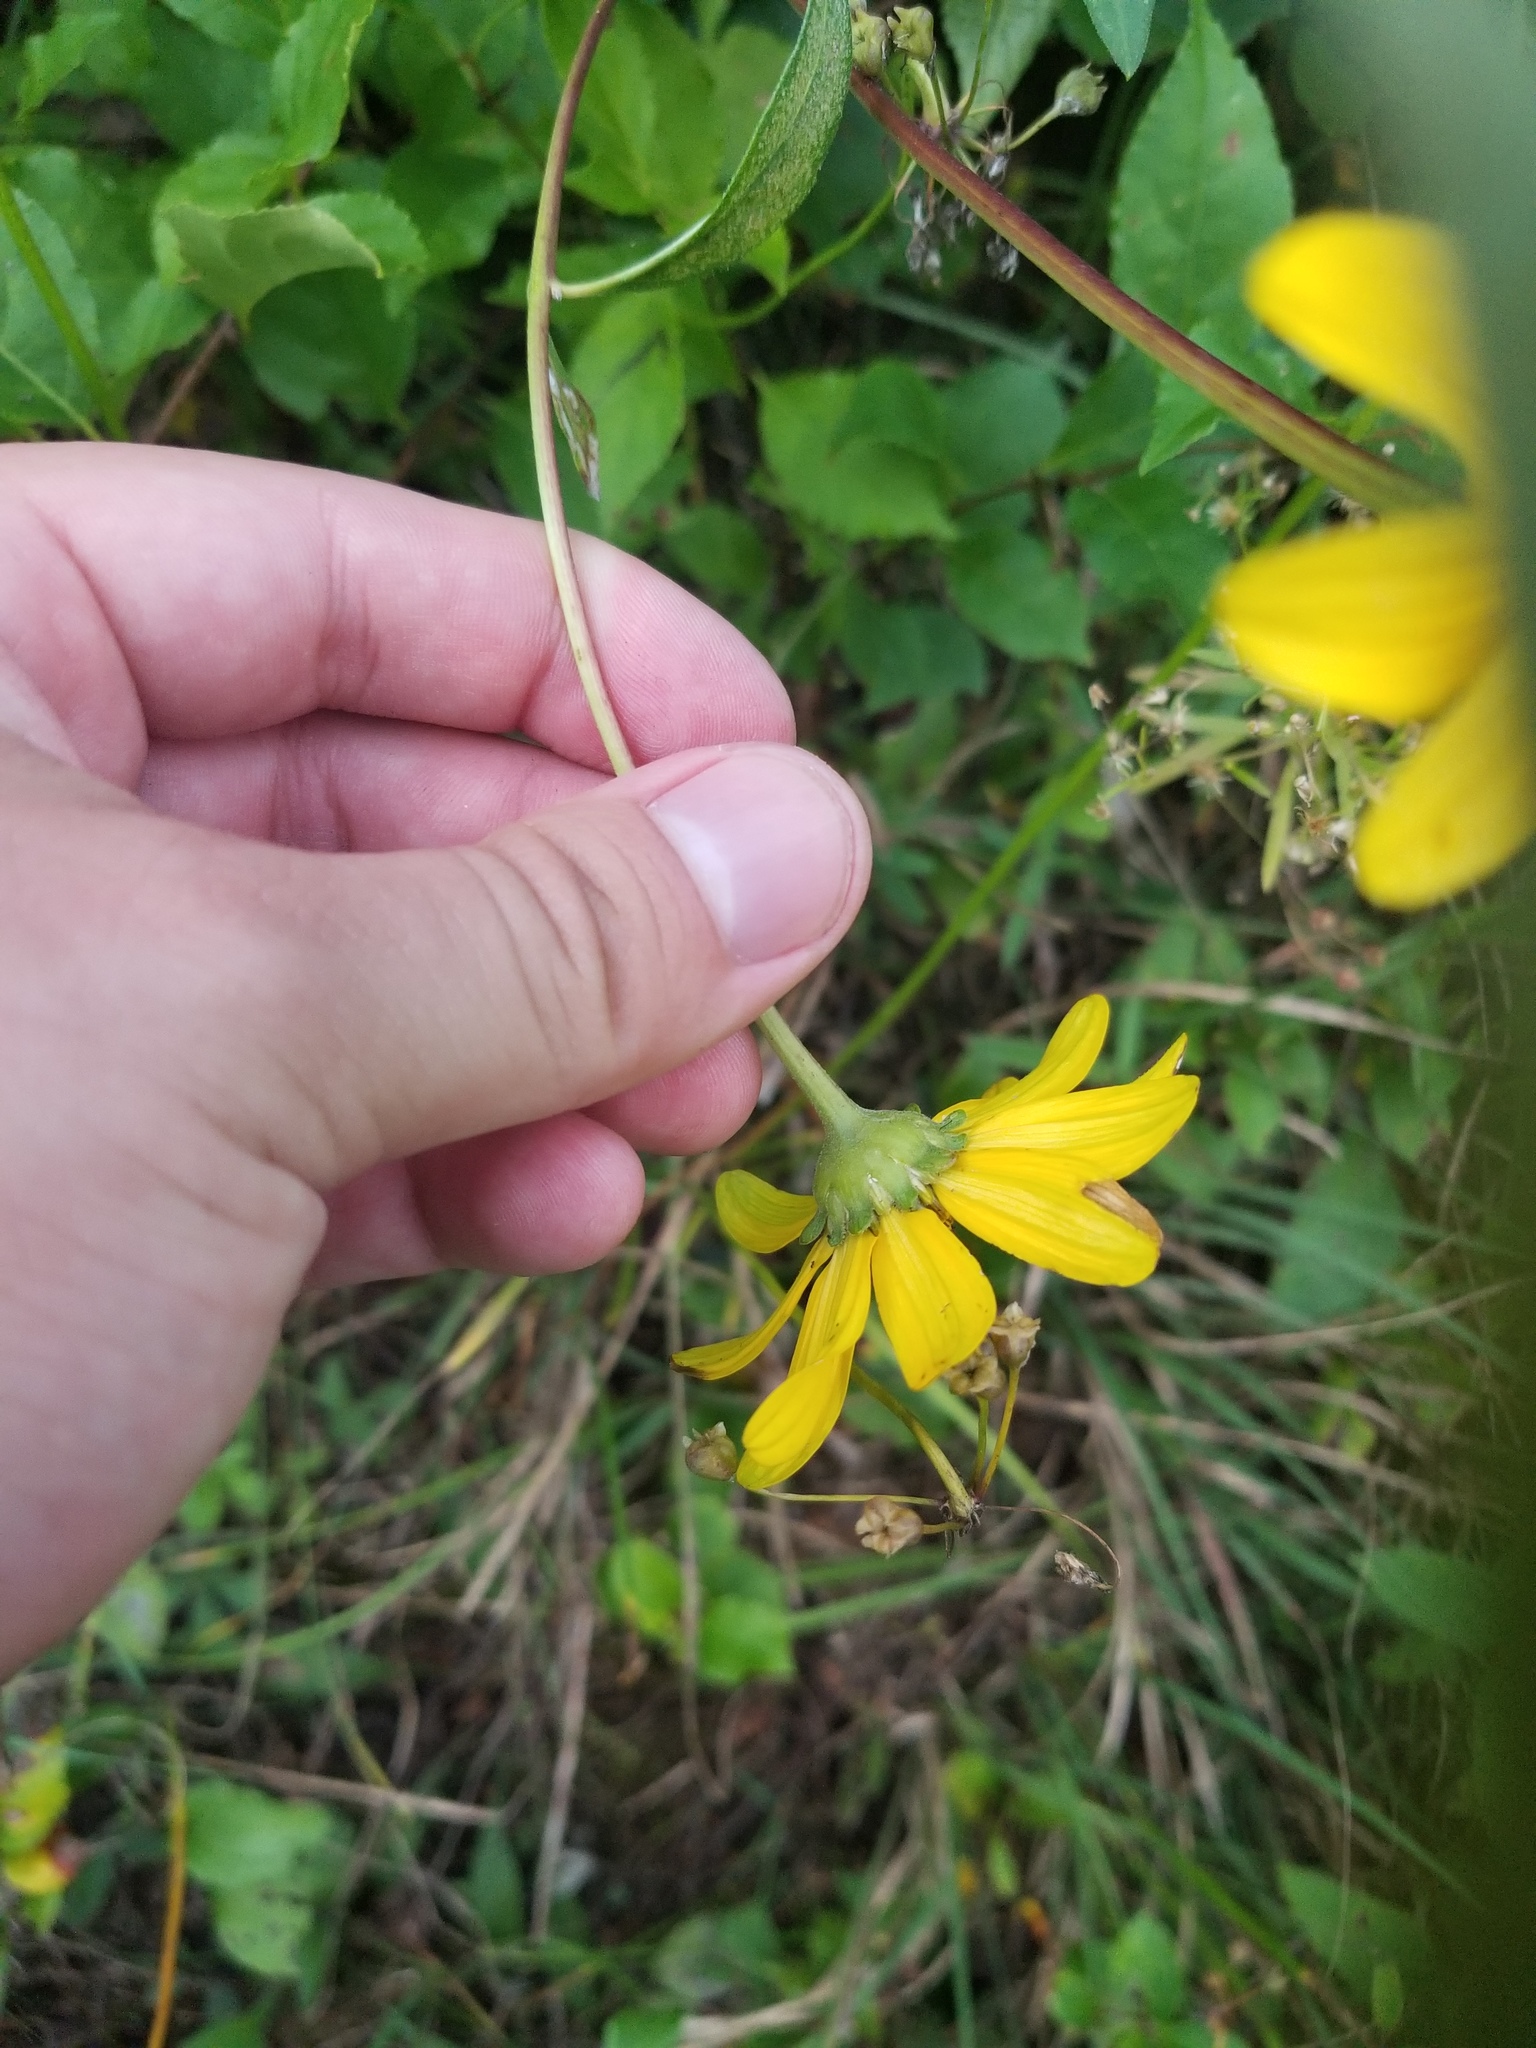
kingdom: Plantae
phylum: Tracheophyta
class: Magnoliopsida
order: Asterales
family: Asteraceae
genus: Heliopsis
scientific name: Heliopsis helianthoides
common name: False sunflower
